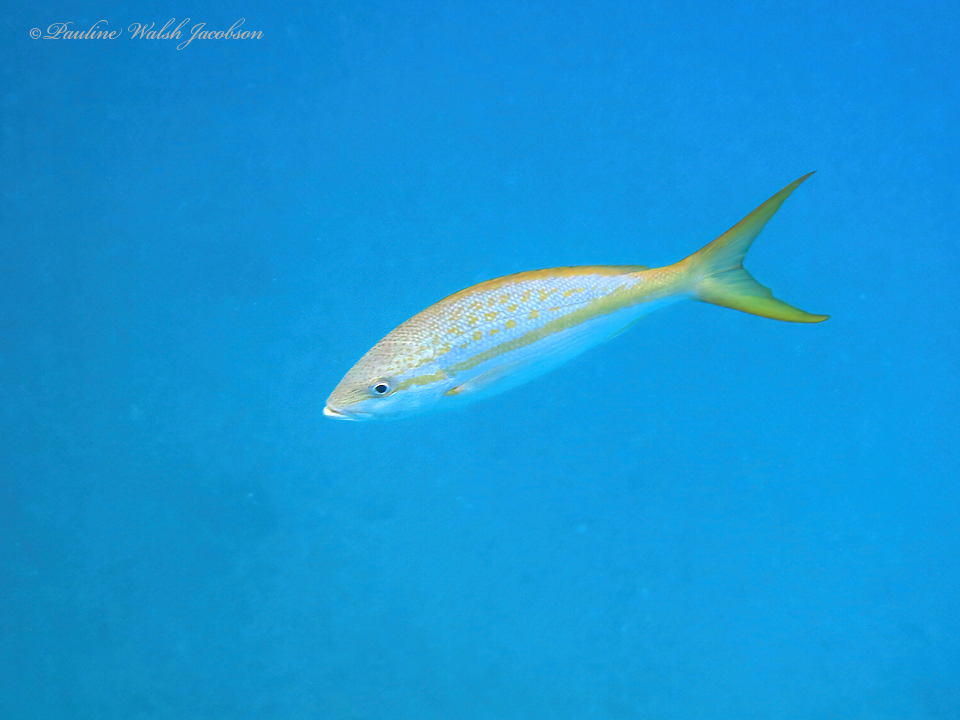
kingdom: Animalia
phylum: Chordata
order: Perciformes
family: Lutjanidae
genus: Ocyurus
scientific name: Ocyurus chrysurus
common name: Yellowtail snapper
